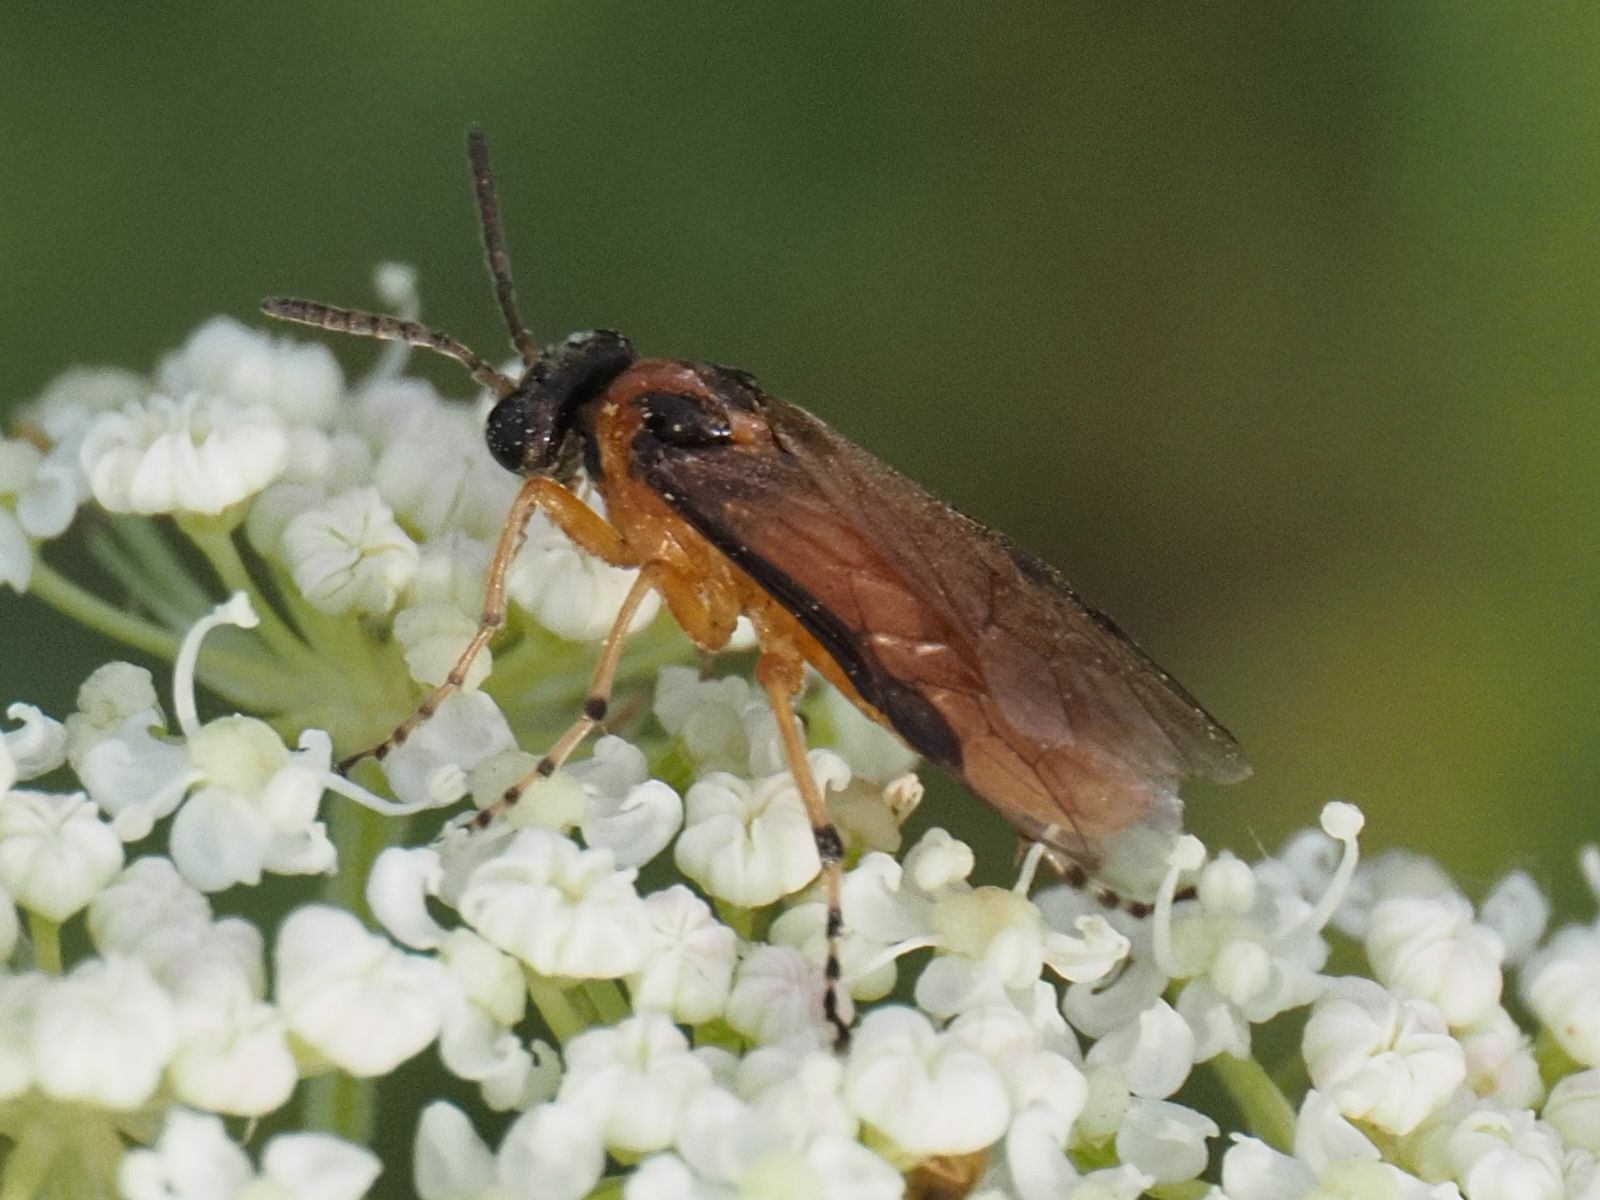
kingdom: Animalia
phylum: Arthropoda
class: Insecta
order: Hymenoptera
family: Tenthredinidae
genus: Athalia
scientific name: Athalia rosae
